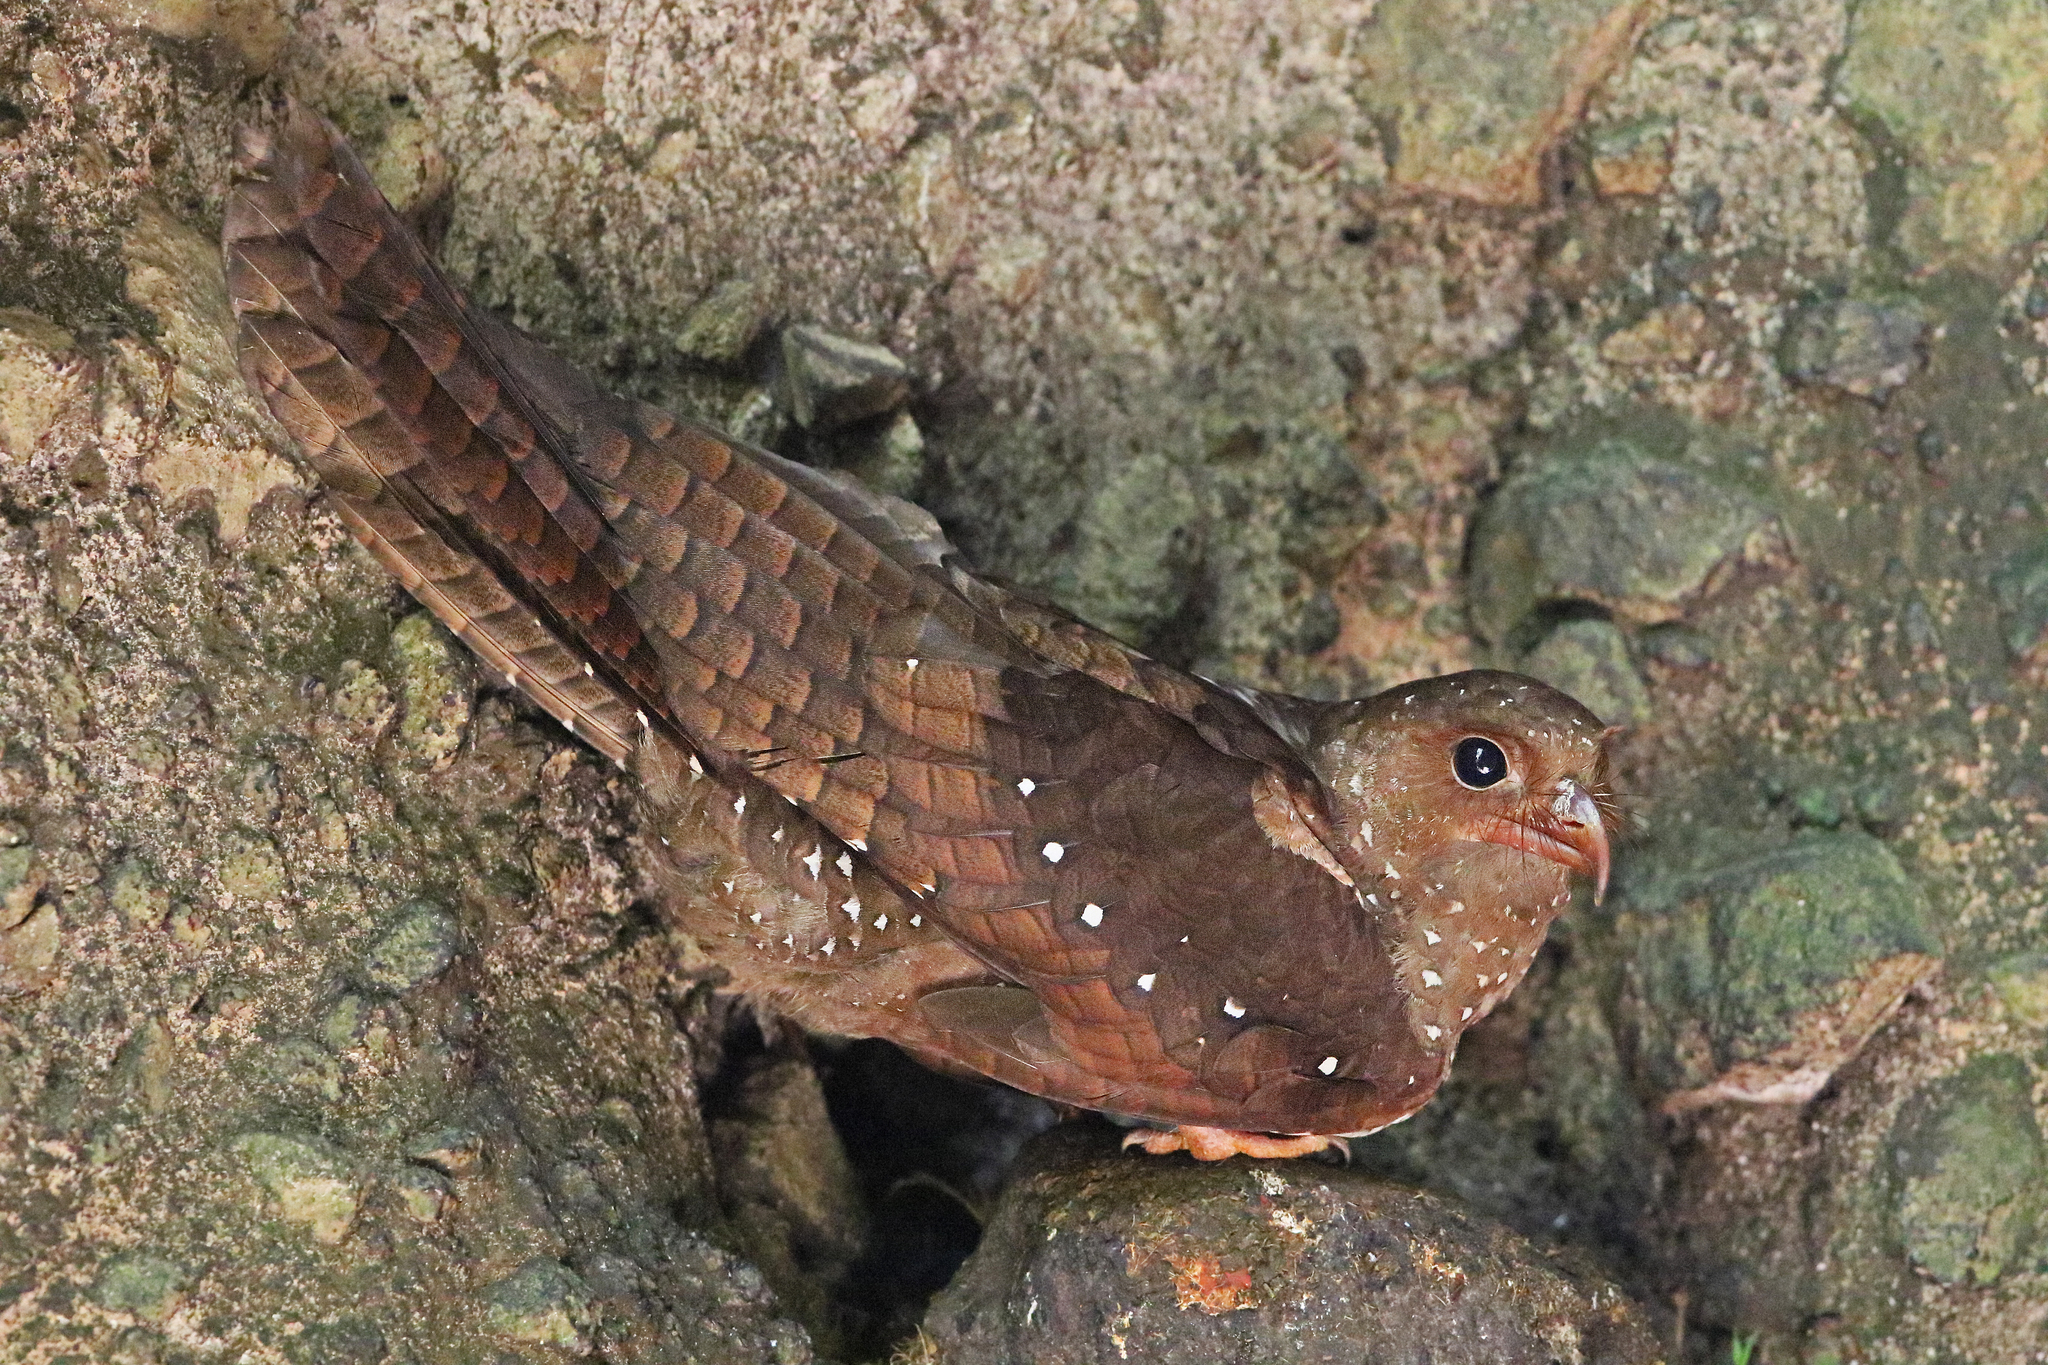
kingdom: Animalia
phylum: Chordata
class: Aves
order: Steatornithiformes
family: Steatornithidae
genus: Steatornis
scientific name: Steatornis caripensis
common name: Oilbird
